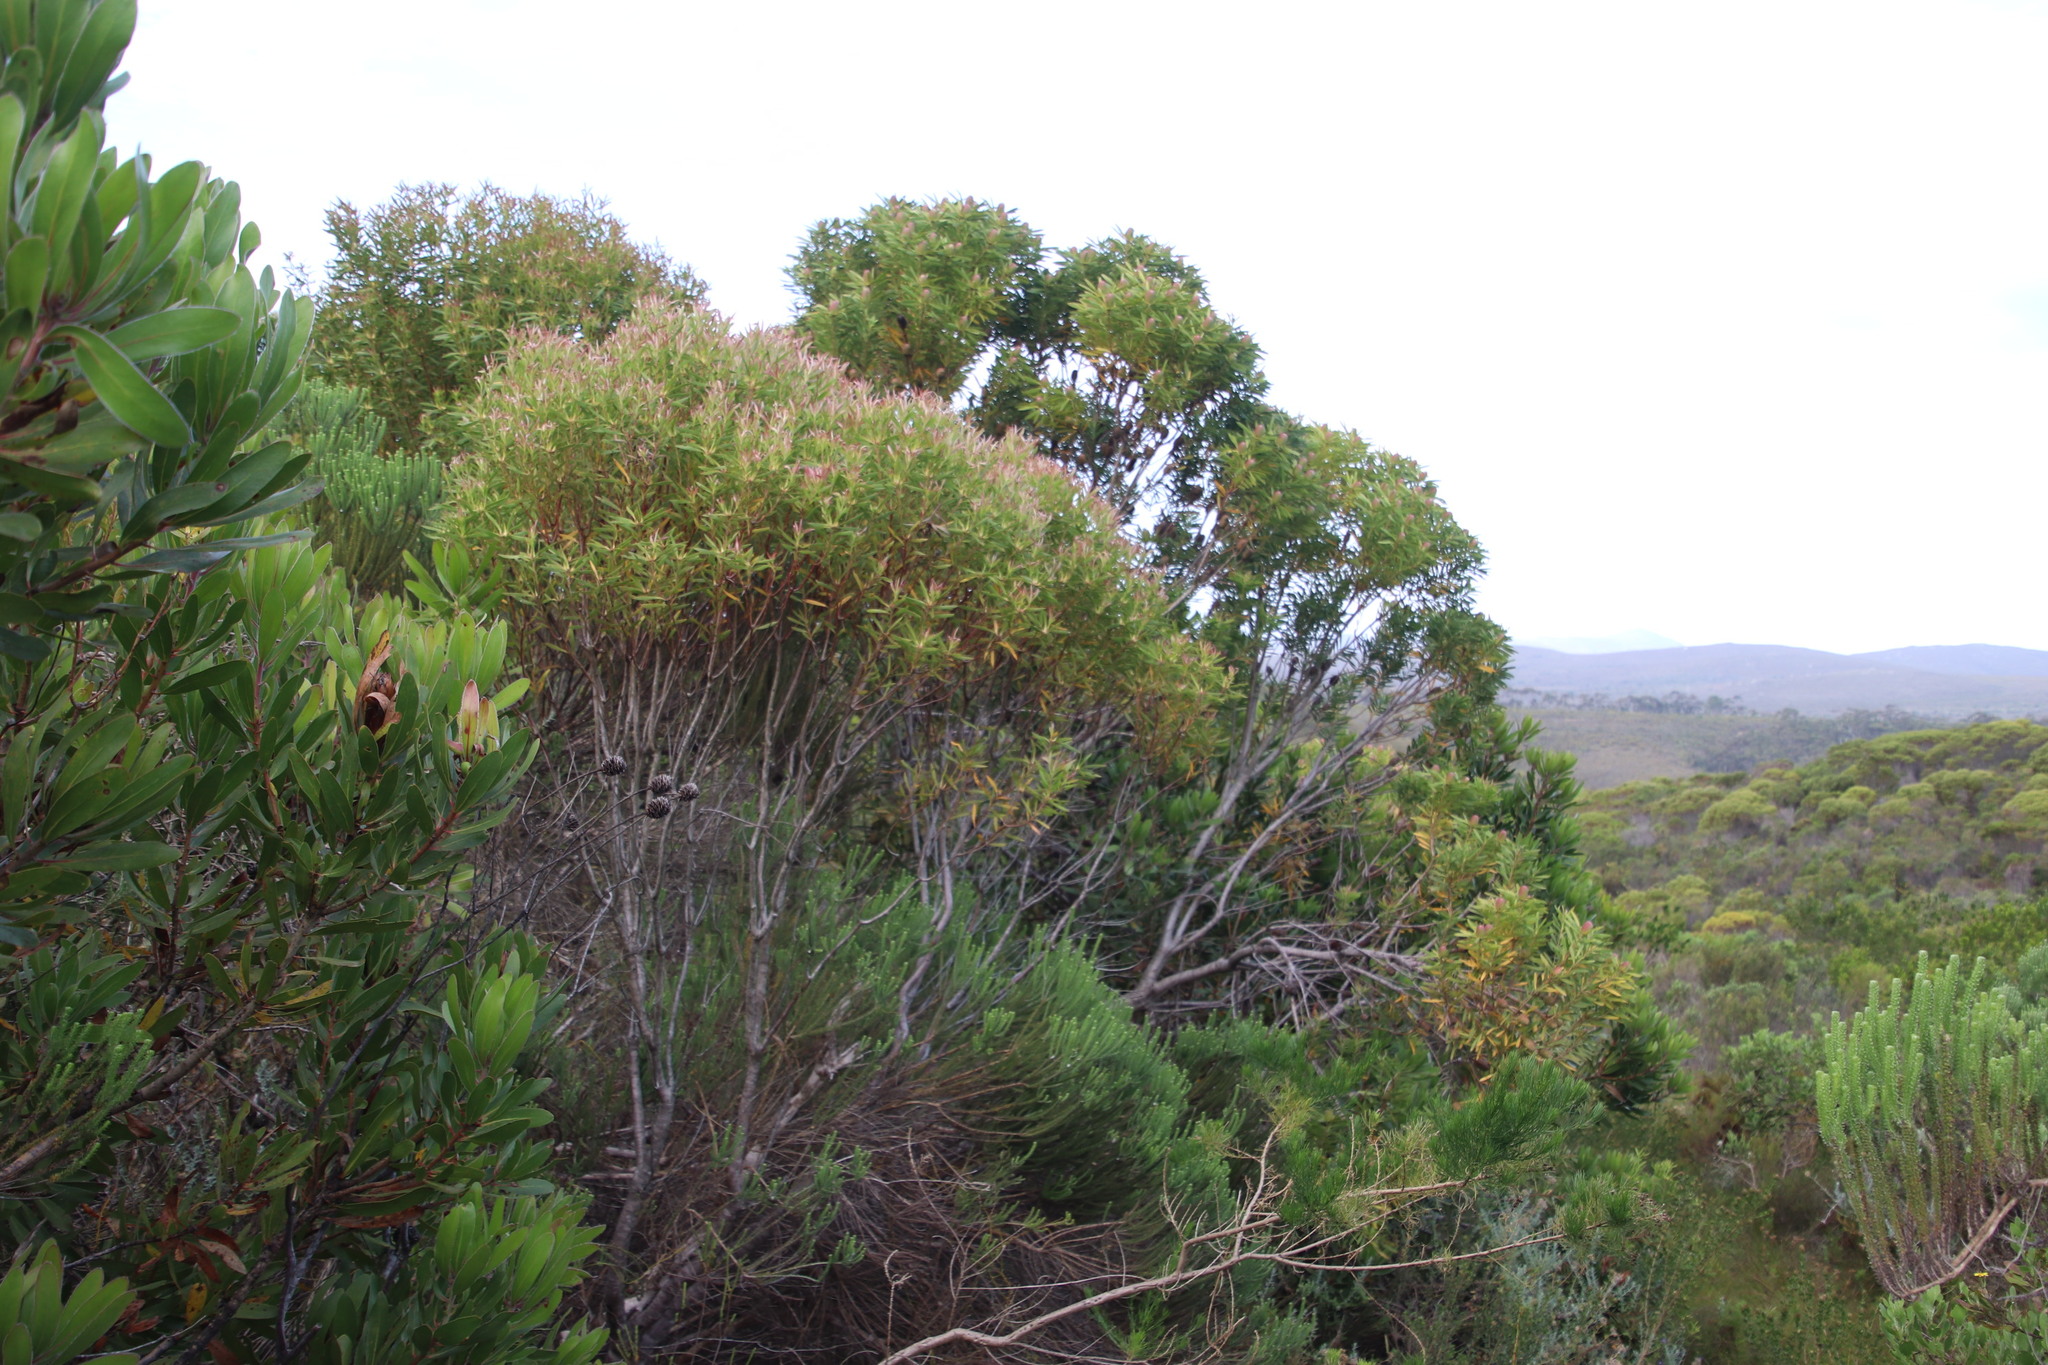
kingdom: Plantae
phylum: Tracheophyta
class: Magnoliopsida
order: Proteales
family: Proteaceae
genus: Leucadendron
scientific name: Leucadendron coniferum
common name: Dune conebush
